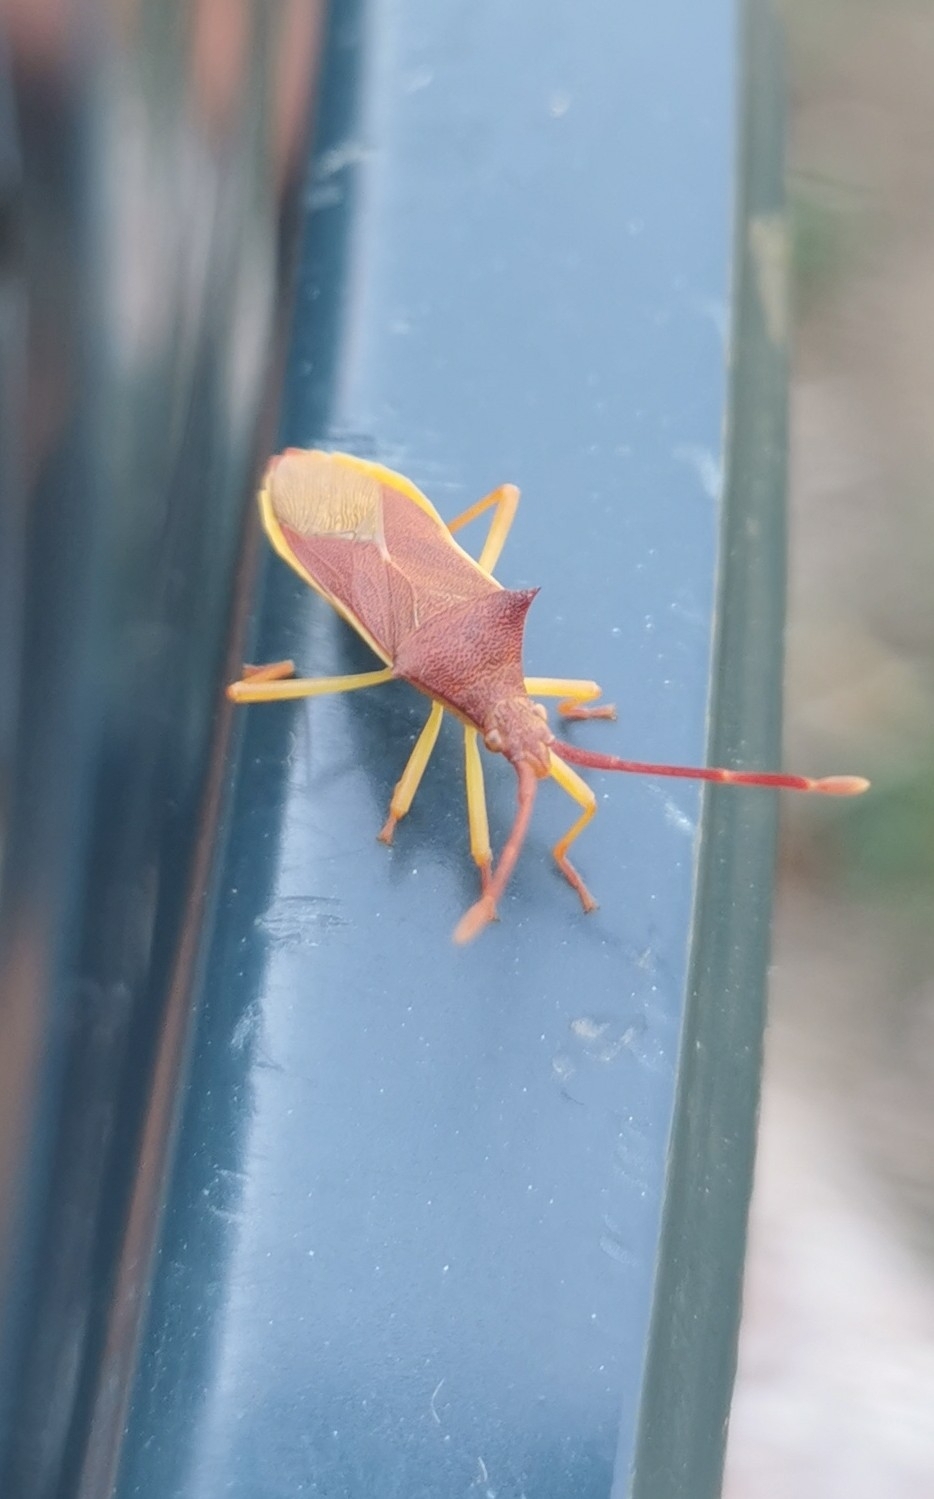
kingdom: Animalia
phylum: Arthropoda
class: Insecta
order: Hemiptera
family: Coreidae
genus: Gonocerus
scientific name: Gonocerus insidiator
